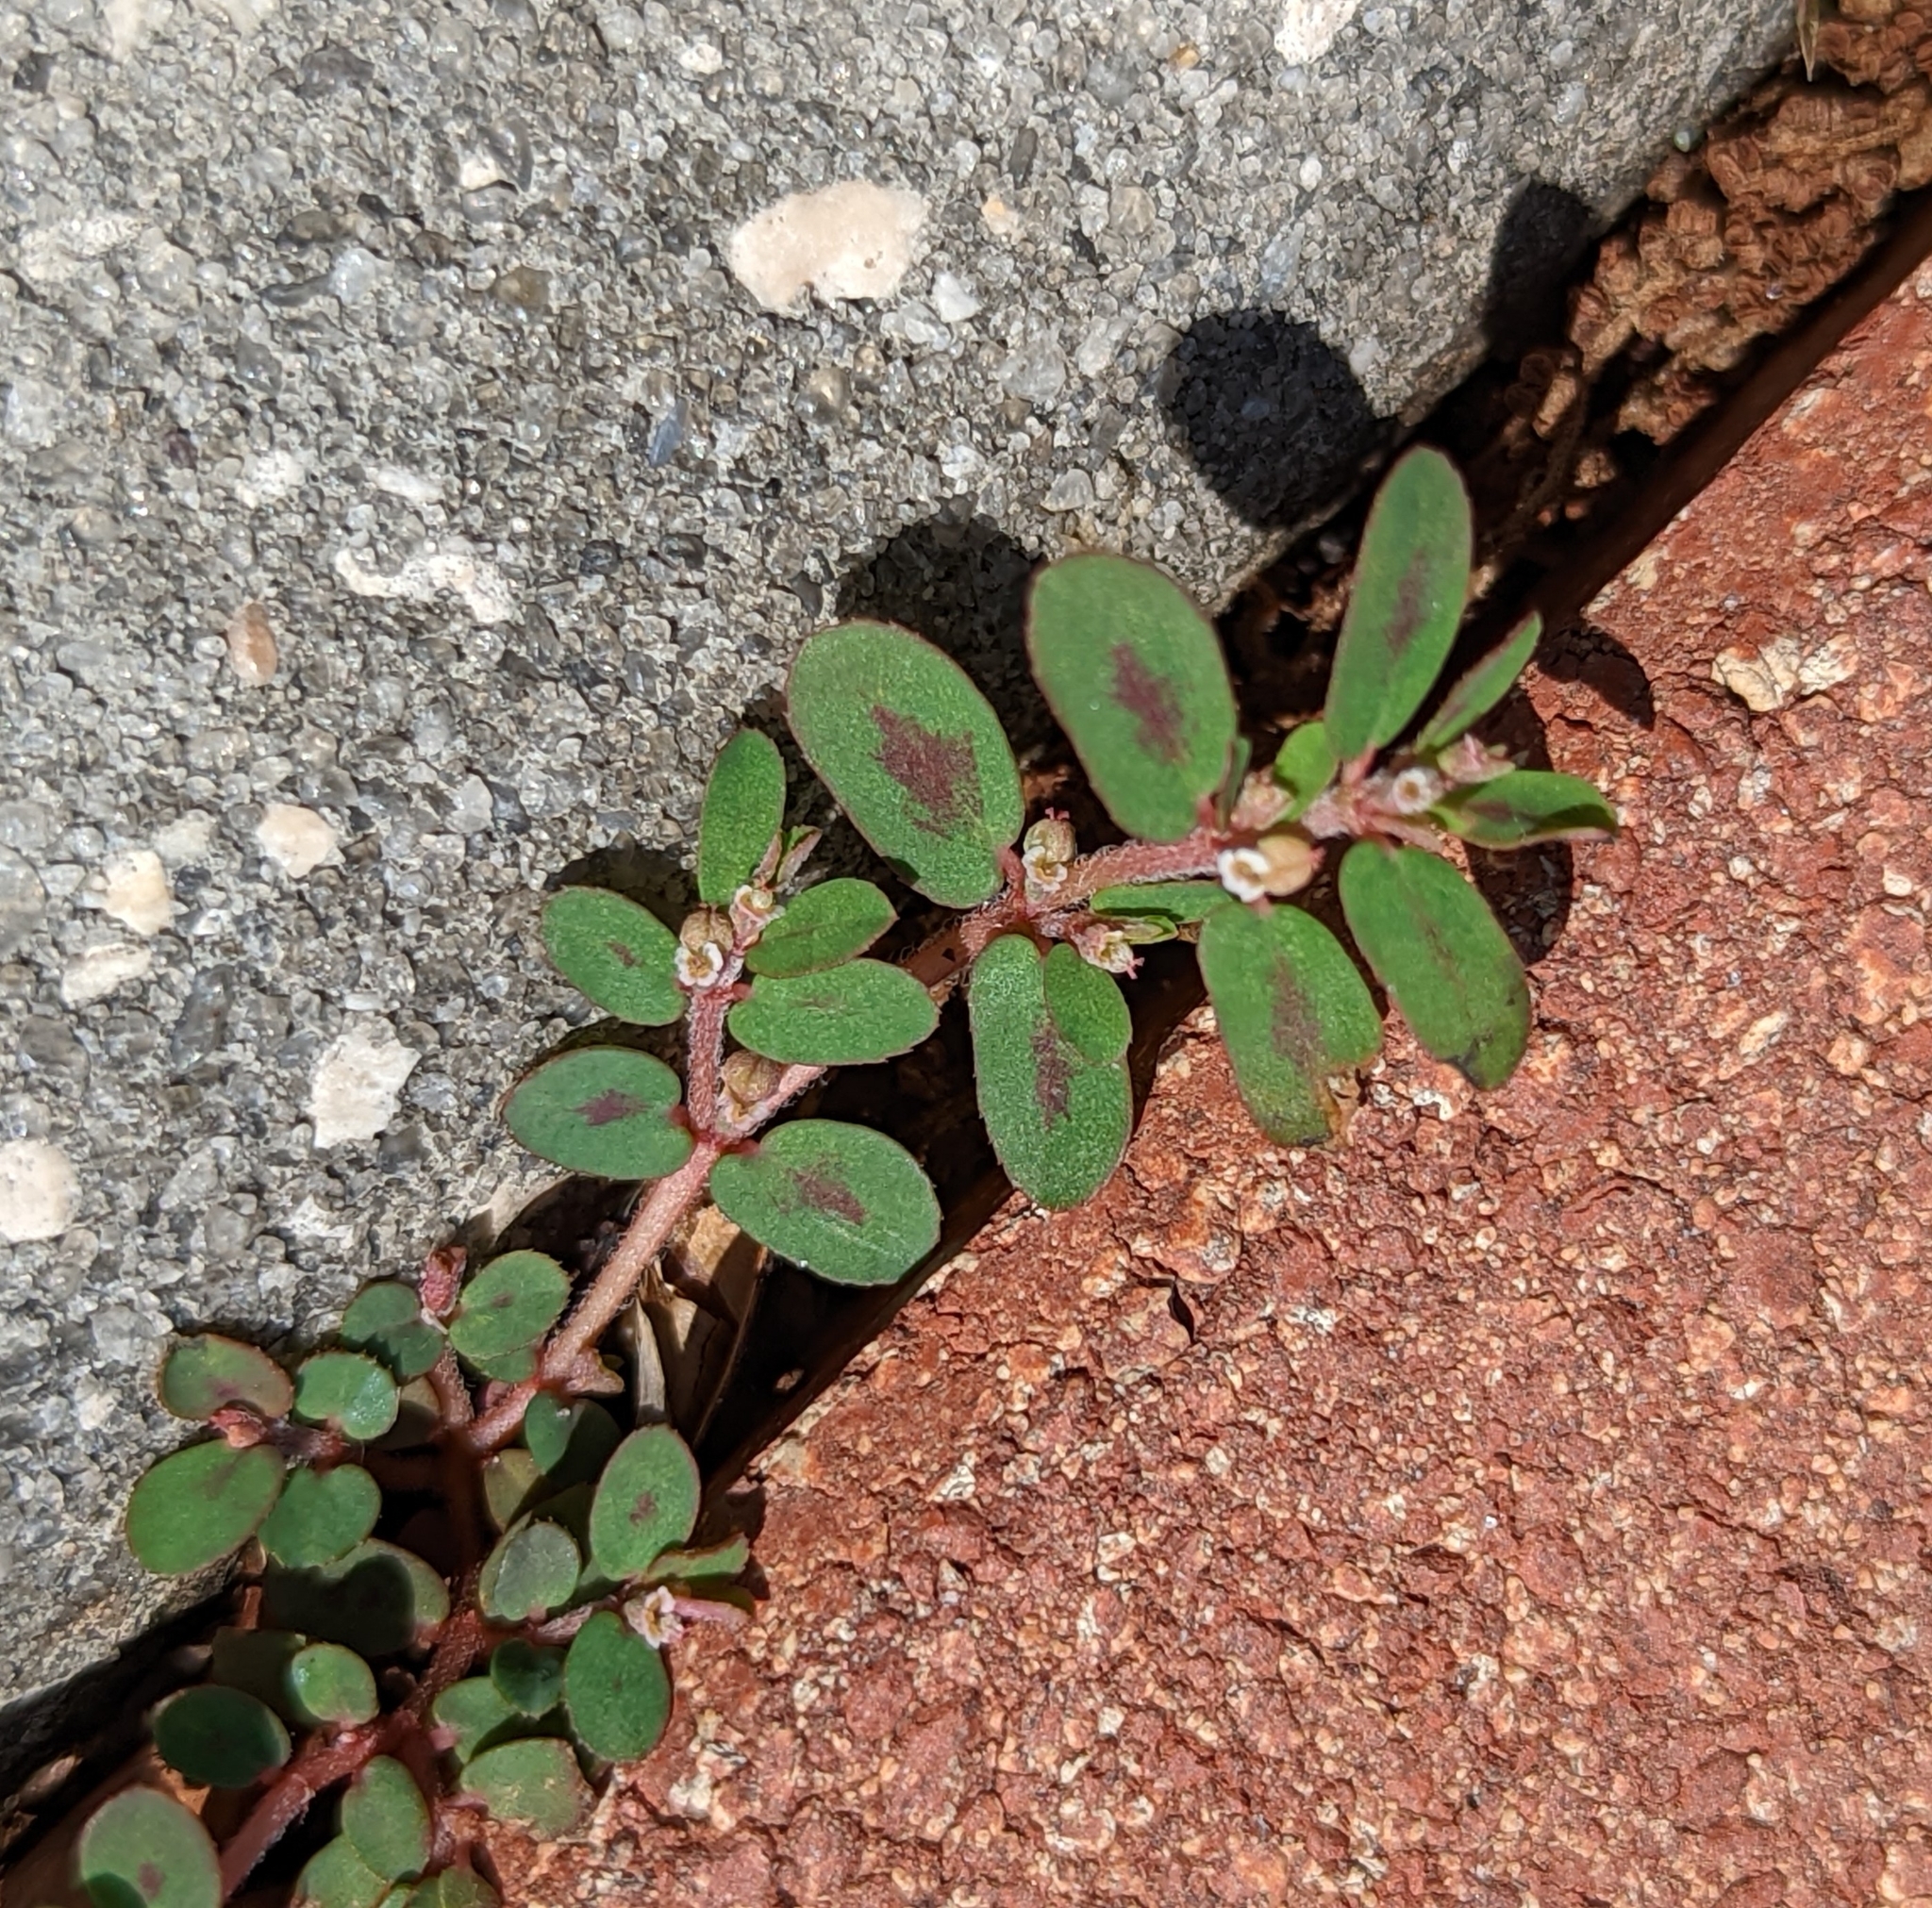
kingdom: Plantae
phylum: Tracheophyta
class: Magnoliopsida
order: Malpighiales
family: Euphorbiaceae
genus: Euphorbia
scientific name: Euphorbia maculata
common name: Spotted spurge
